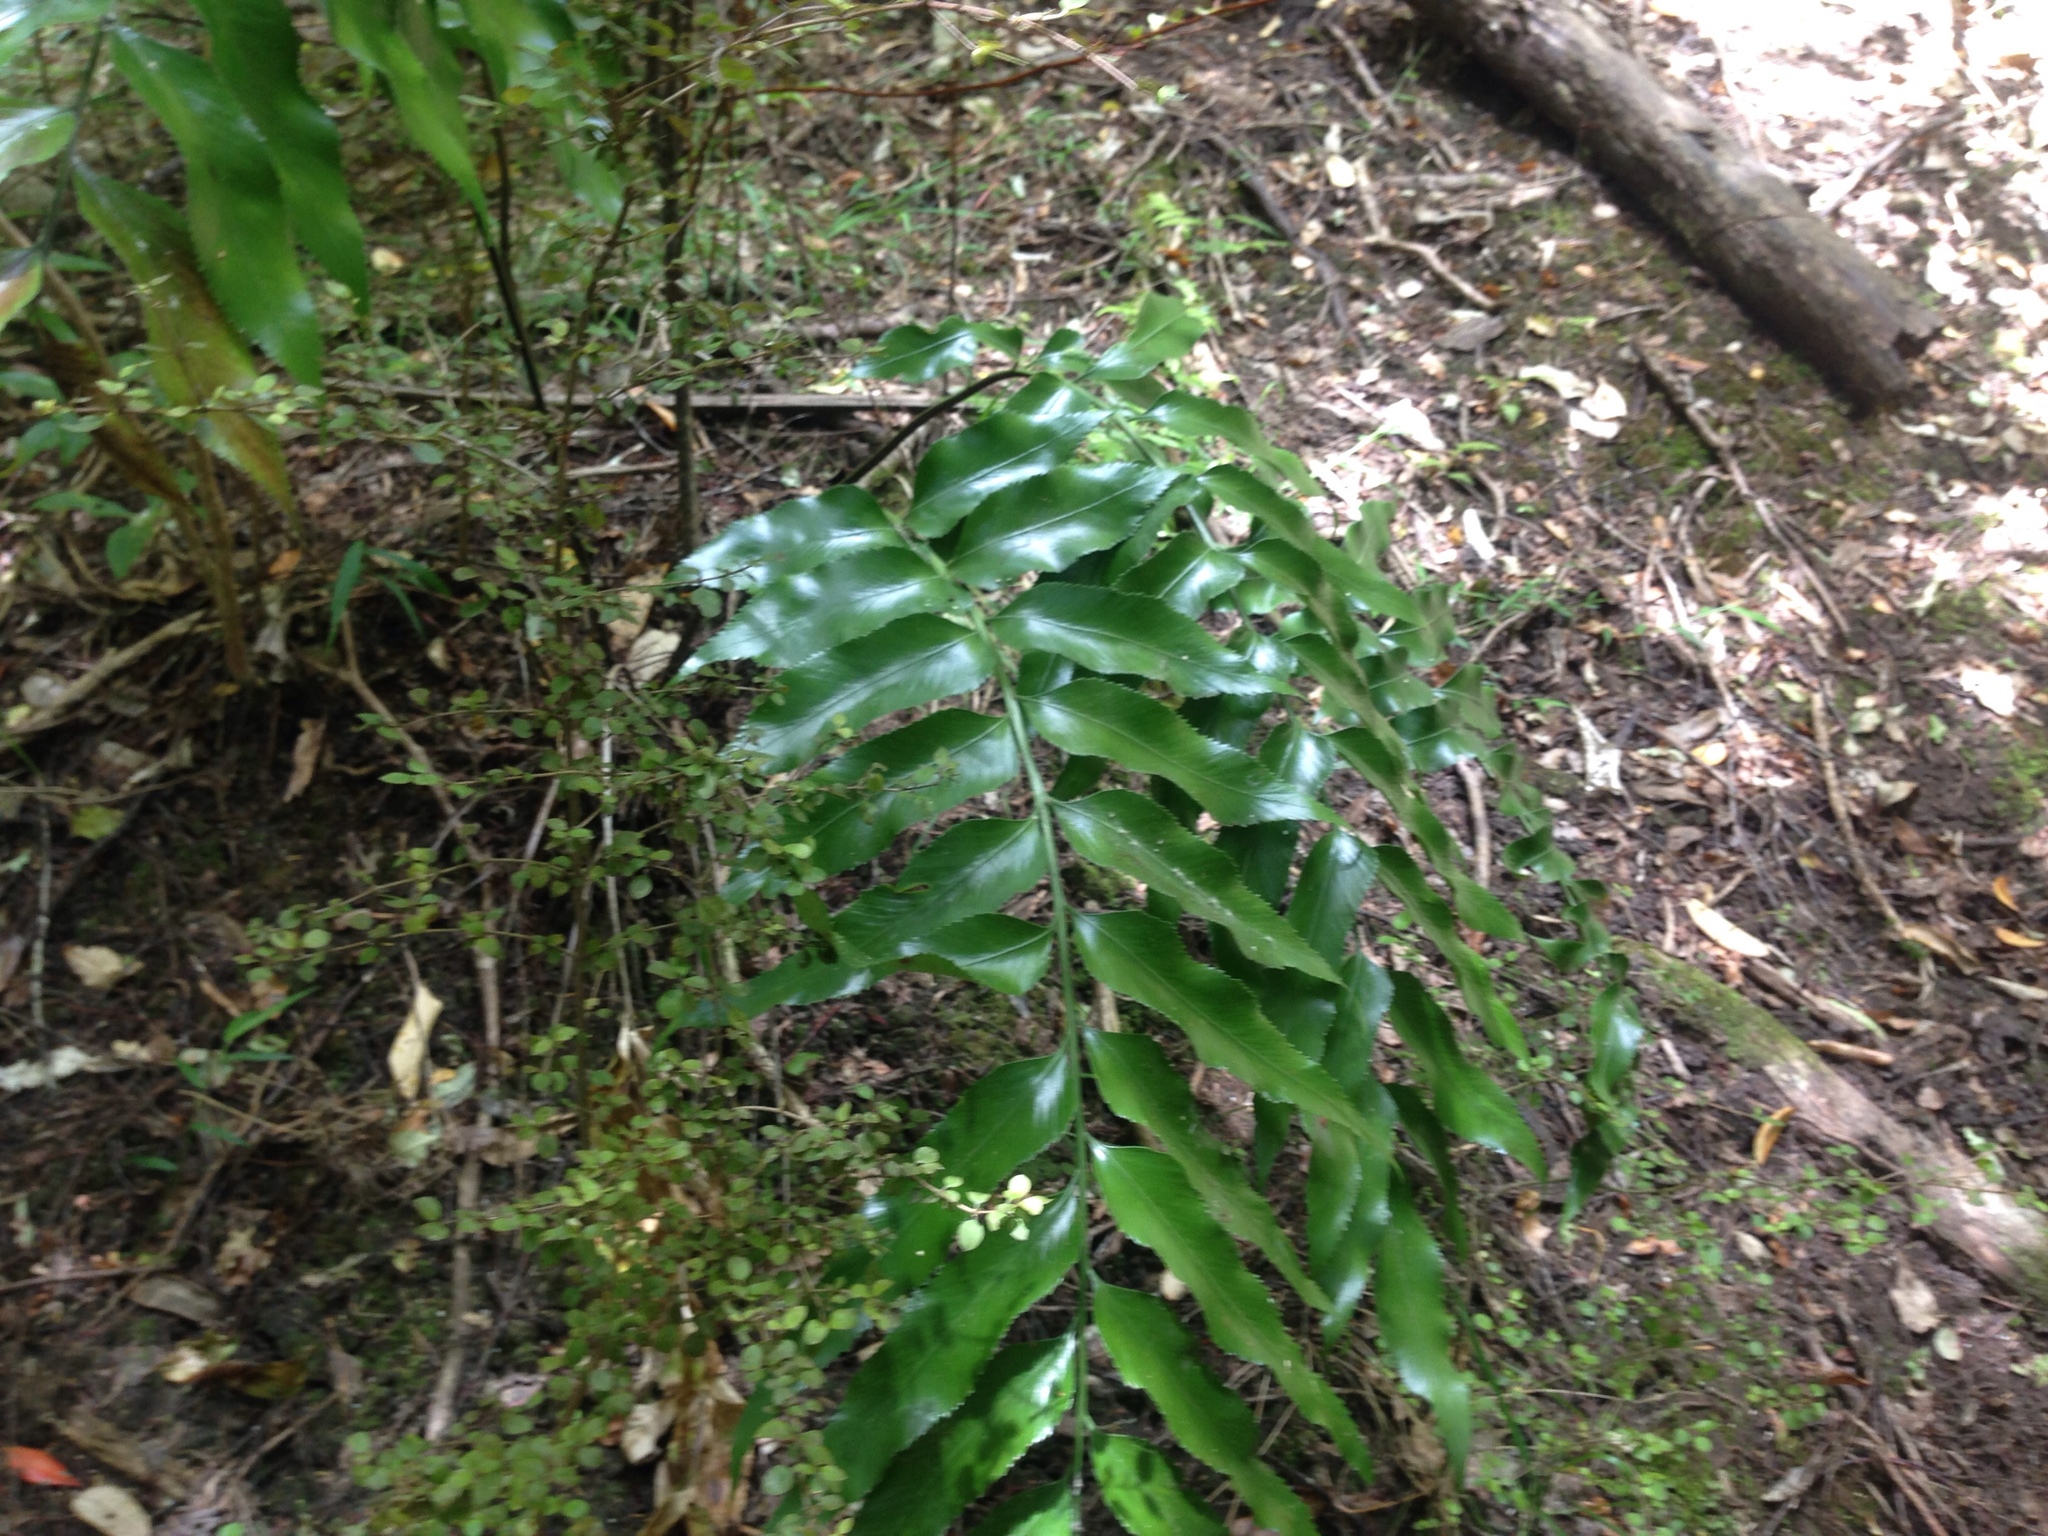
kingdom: Plantae
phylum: Tracheophyta
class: Polypodiopsida
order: Polypodiales
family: Aspleniaceae
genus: Asplenium
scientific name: Asplenium oblongifolium
